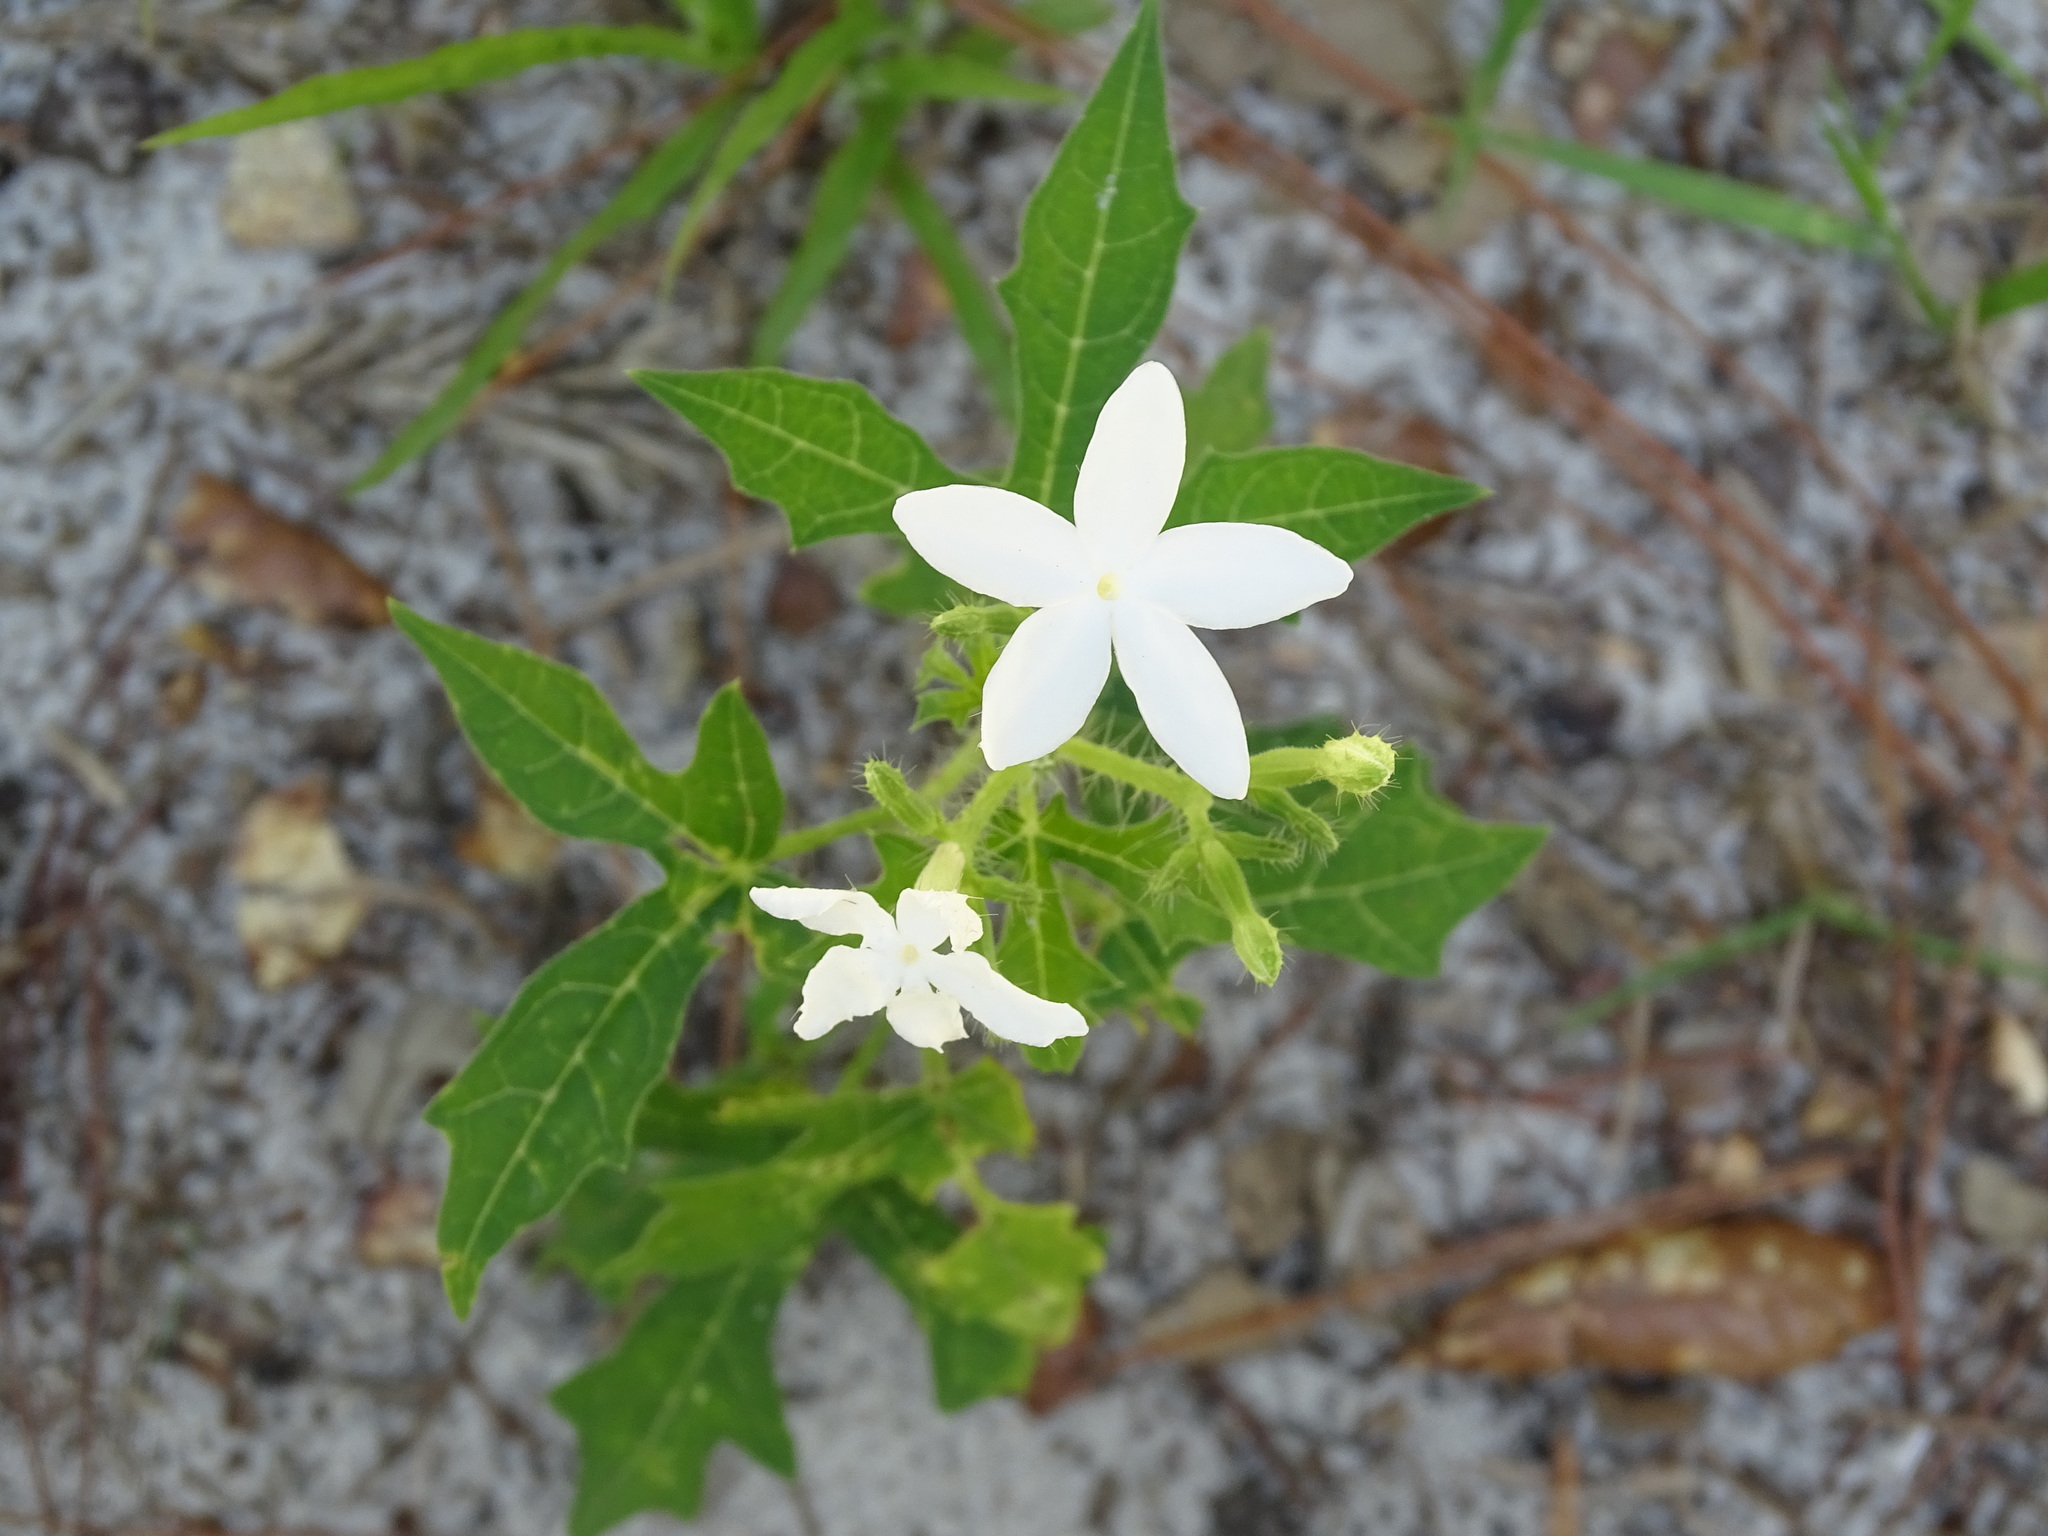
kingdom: Plantae
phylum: Tracheophyta
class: Magnoliopsida
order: Malpighiales
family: Euphorbiaceae
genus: Cnidoscolus
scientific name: Cnidoscolus stimulosus
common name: Bull-nettle
